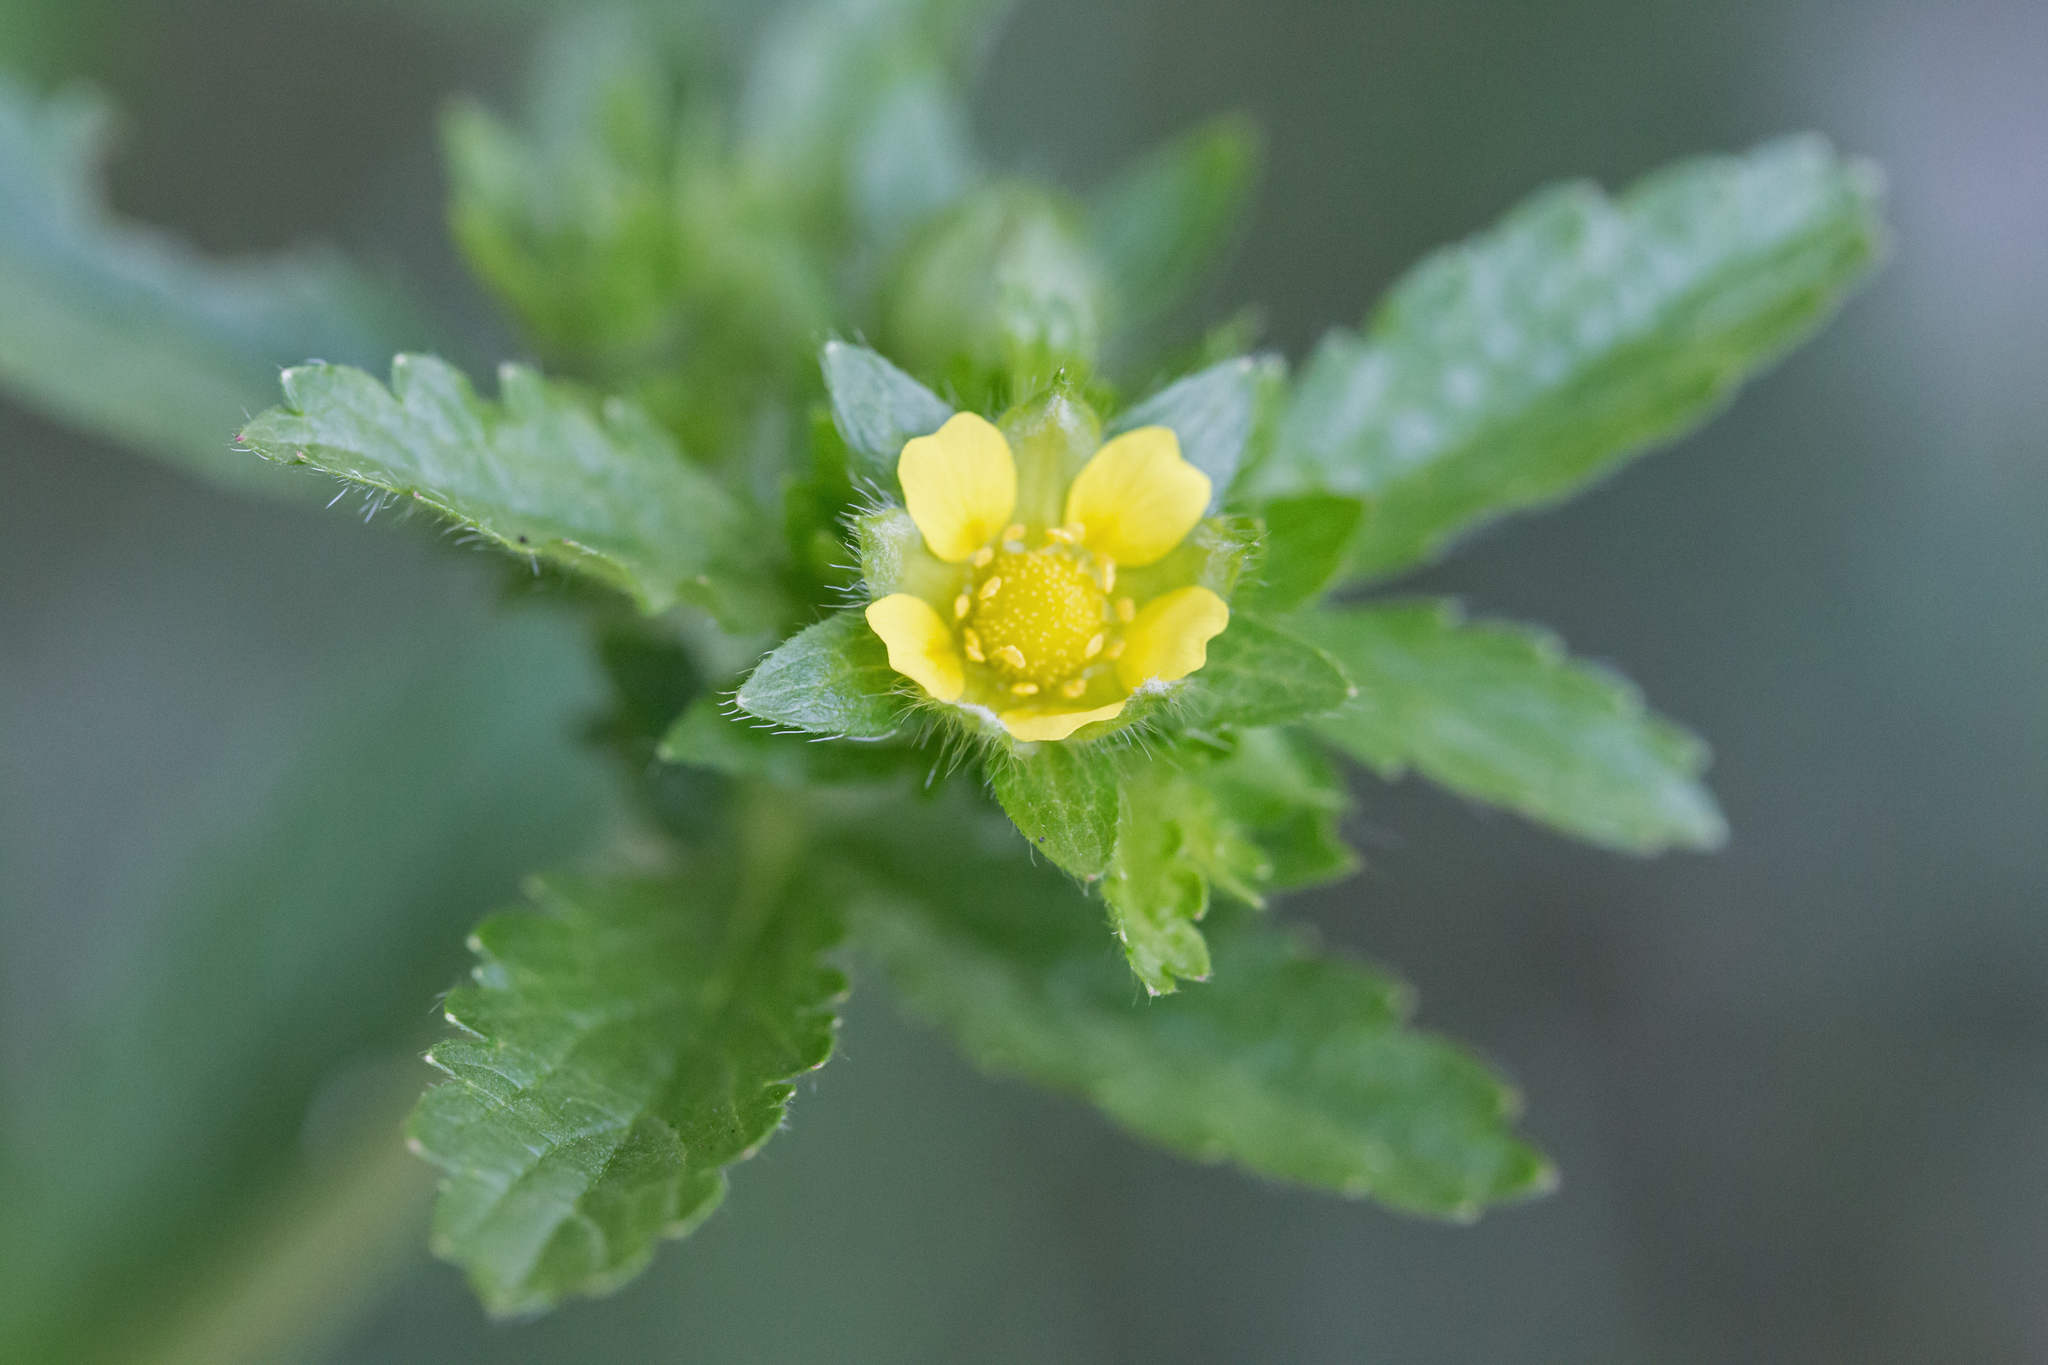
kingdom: Plantae
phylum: Tracheophyta
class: Magnoliopsida
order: Rosales
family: Rosaceae
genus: Potentilla
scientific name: Potentilla norvegica
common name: Ternate-leaved cinquefoil
